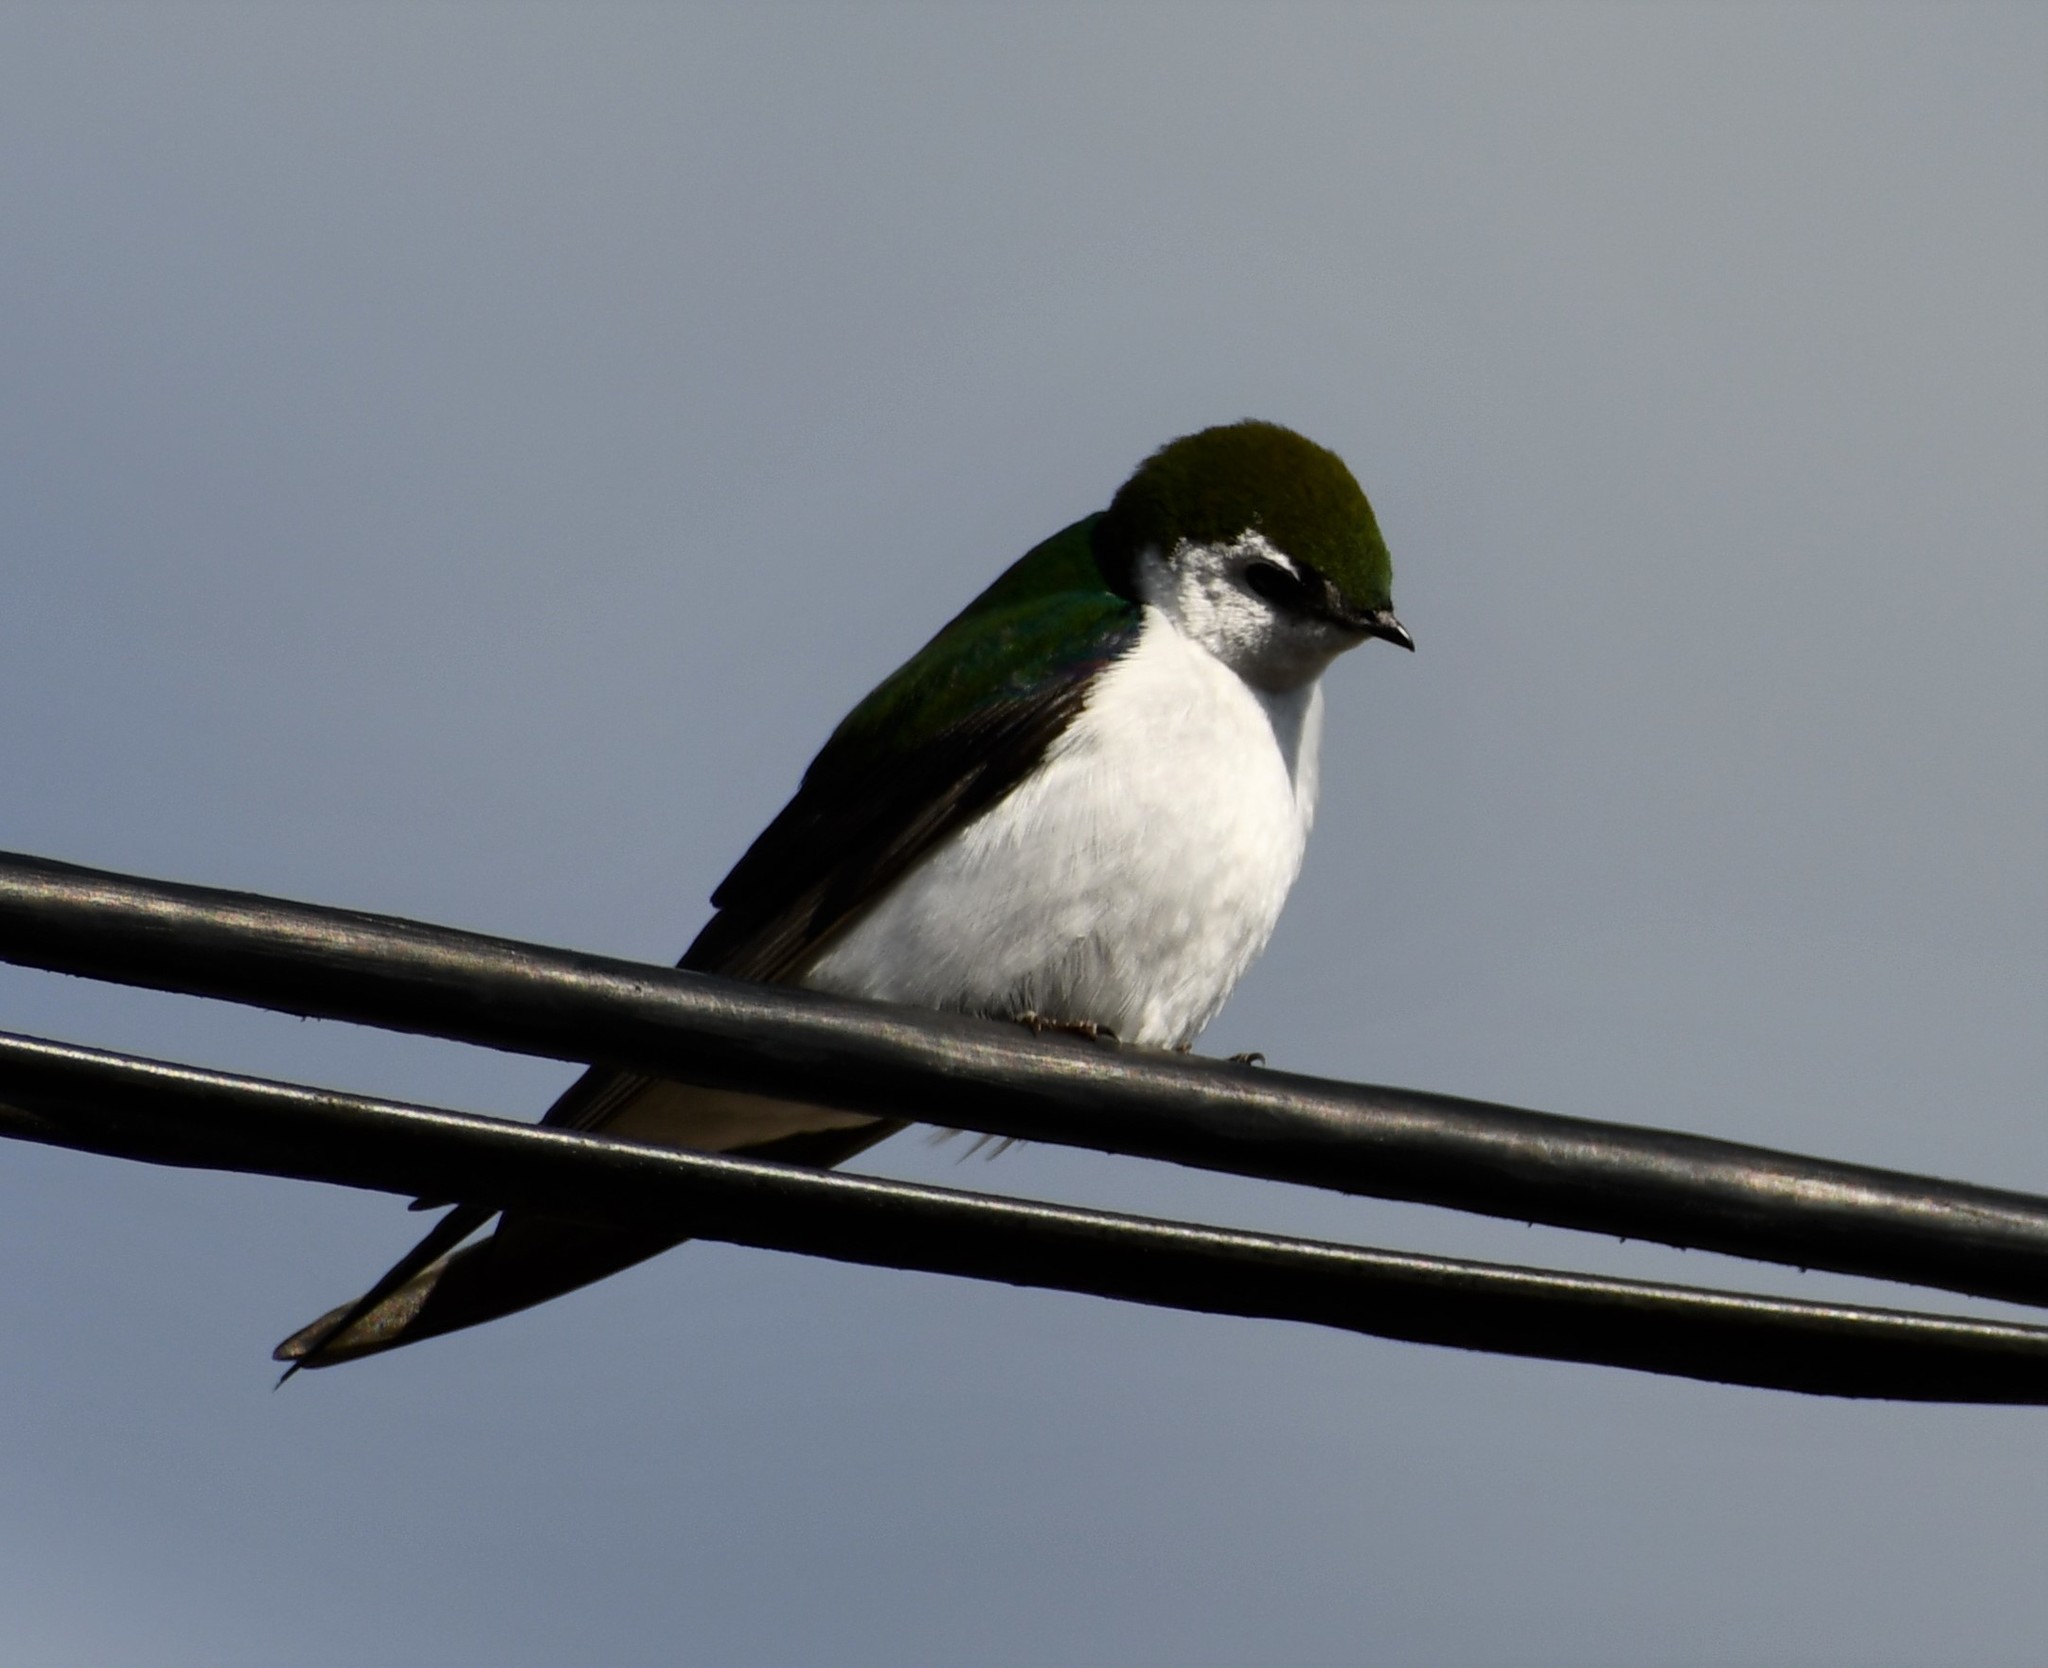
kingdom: Animalia
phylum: Chordata
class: Aves
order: Passeriformes
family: Hirundinidae
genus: Tachycineta
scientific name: Tachycineta thalassina
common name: Violet-green swallow
